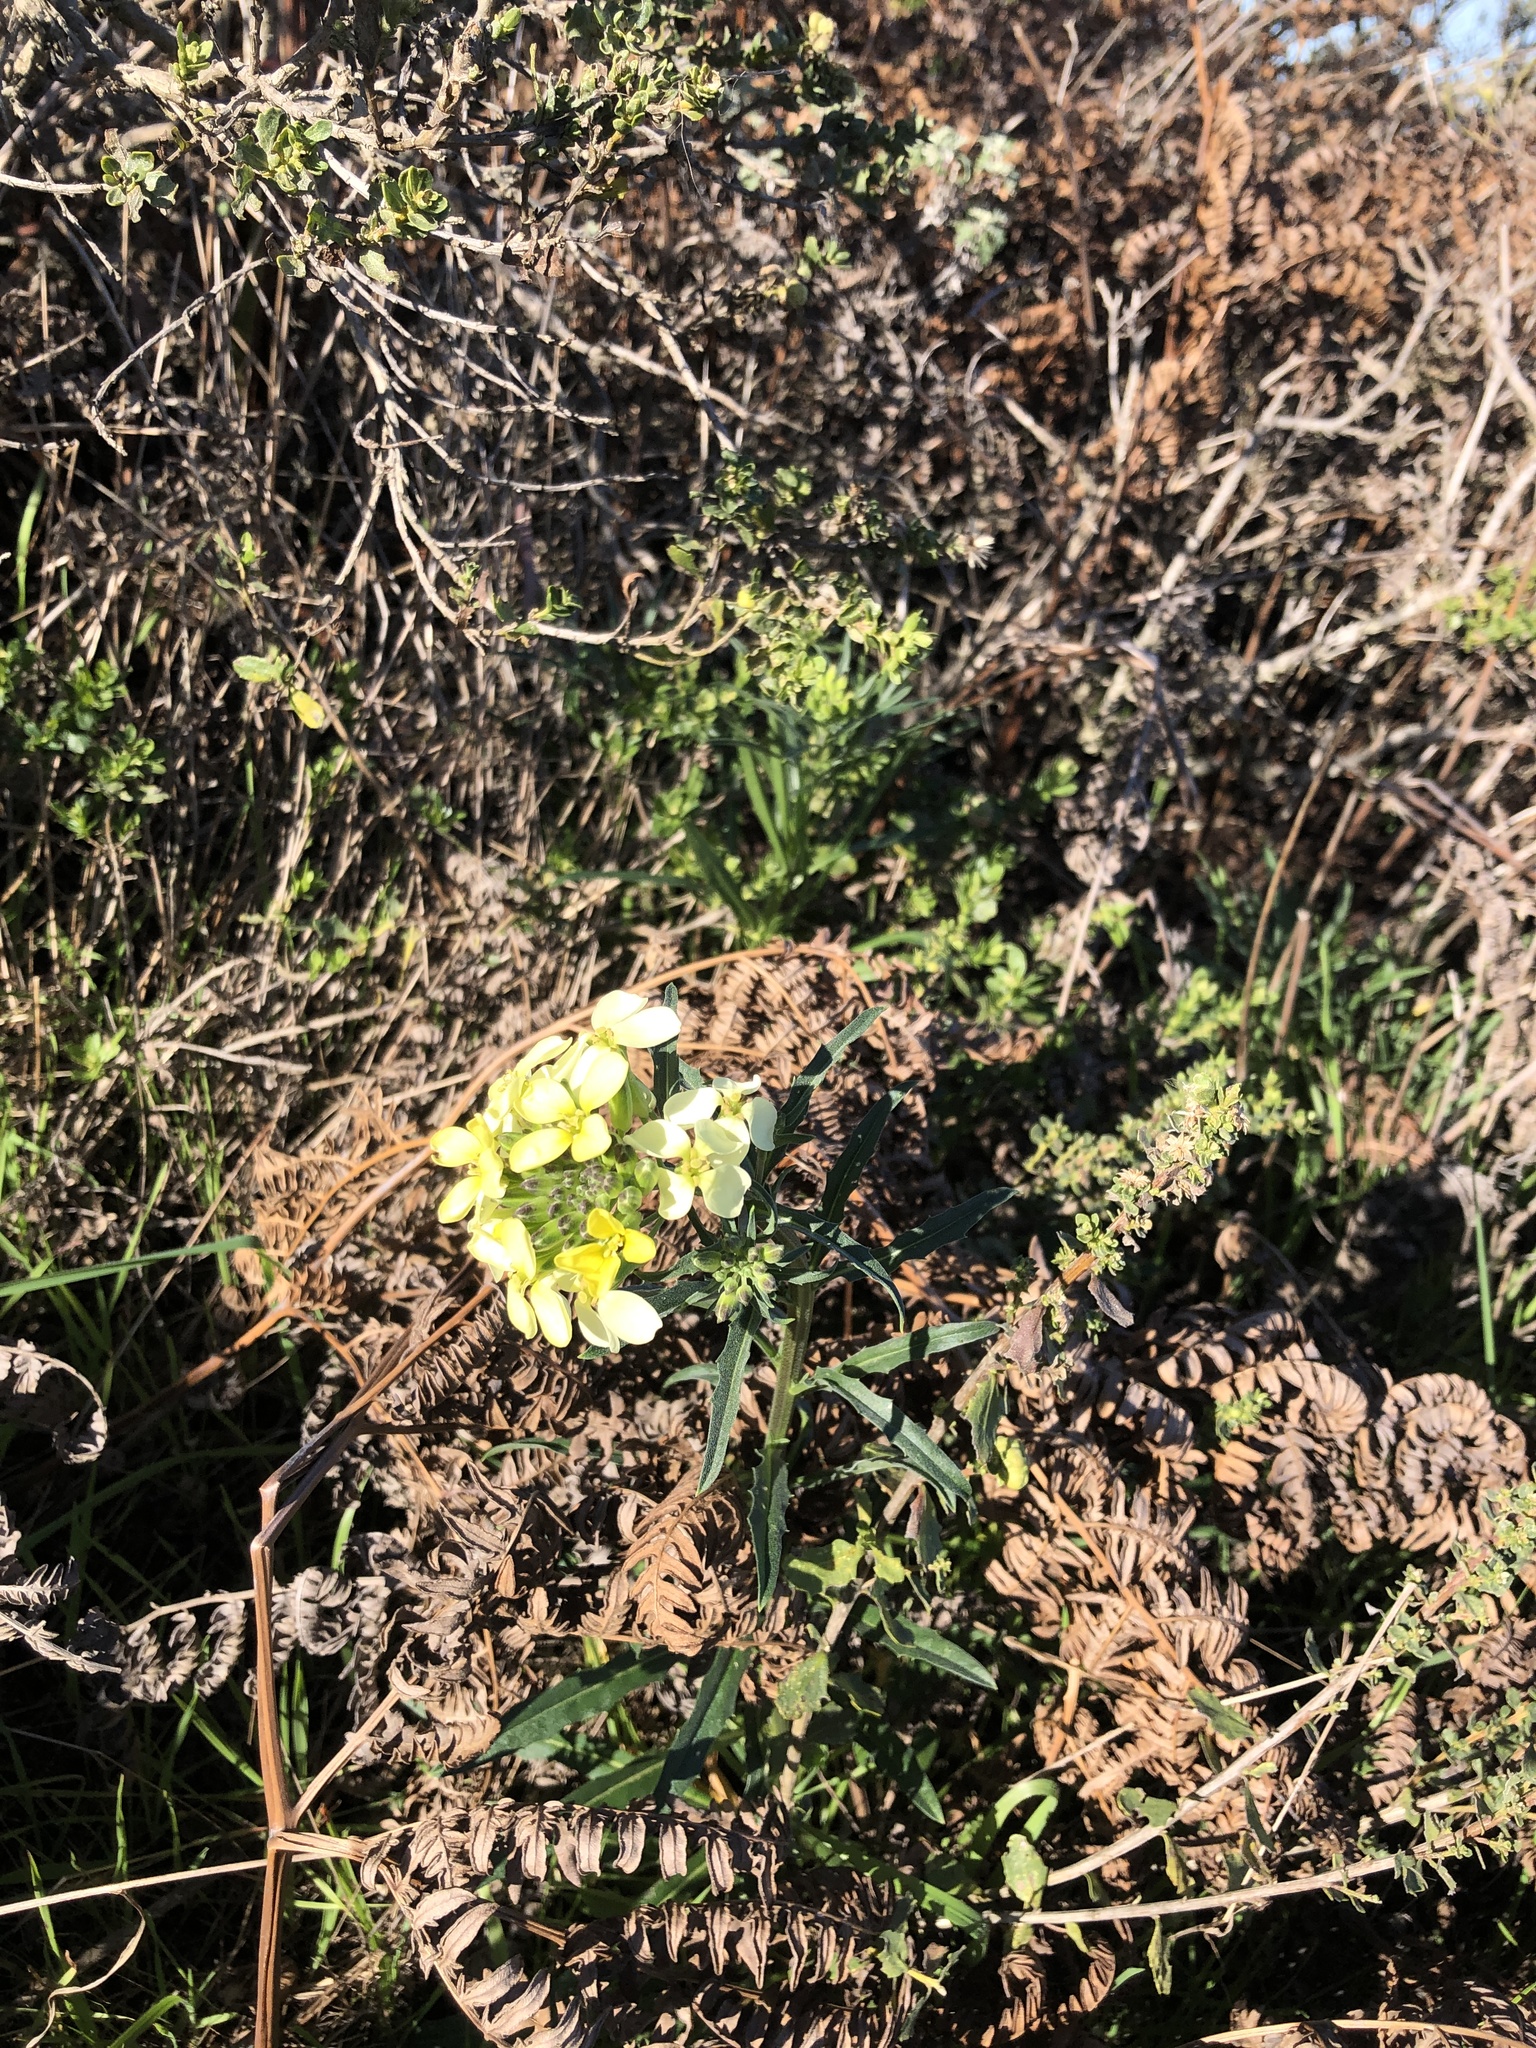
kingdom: Plantae
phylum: Tracheophyta
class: Magnoliopsida
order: Brassicales
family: Brassicaceae
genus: Erysimum
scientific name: Erysimum franciscanum
